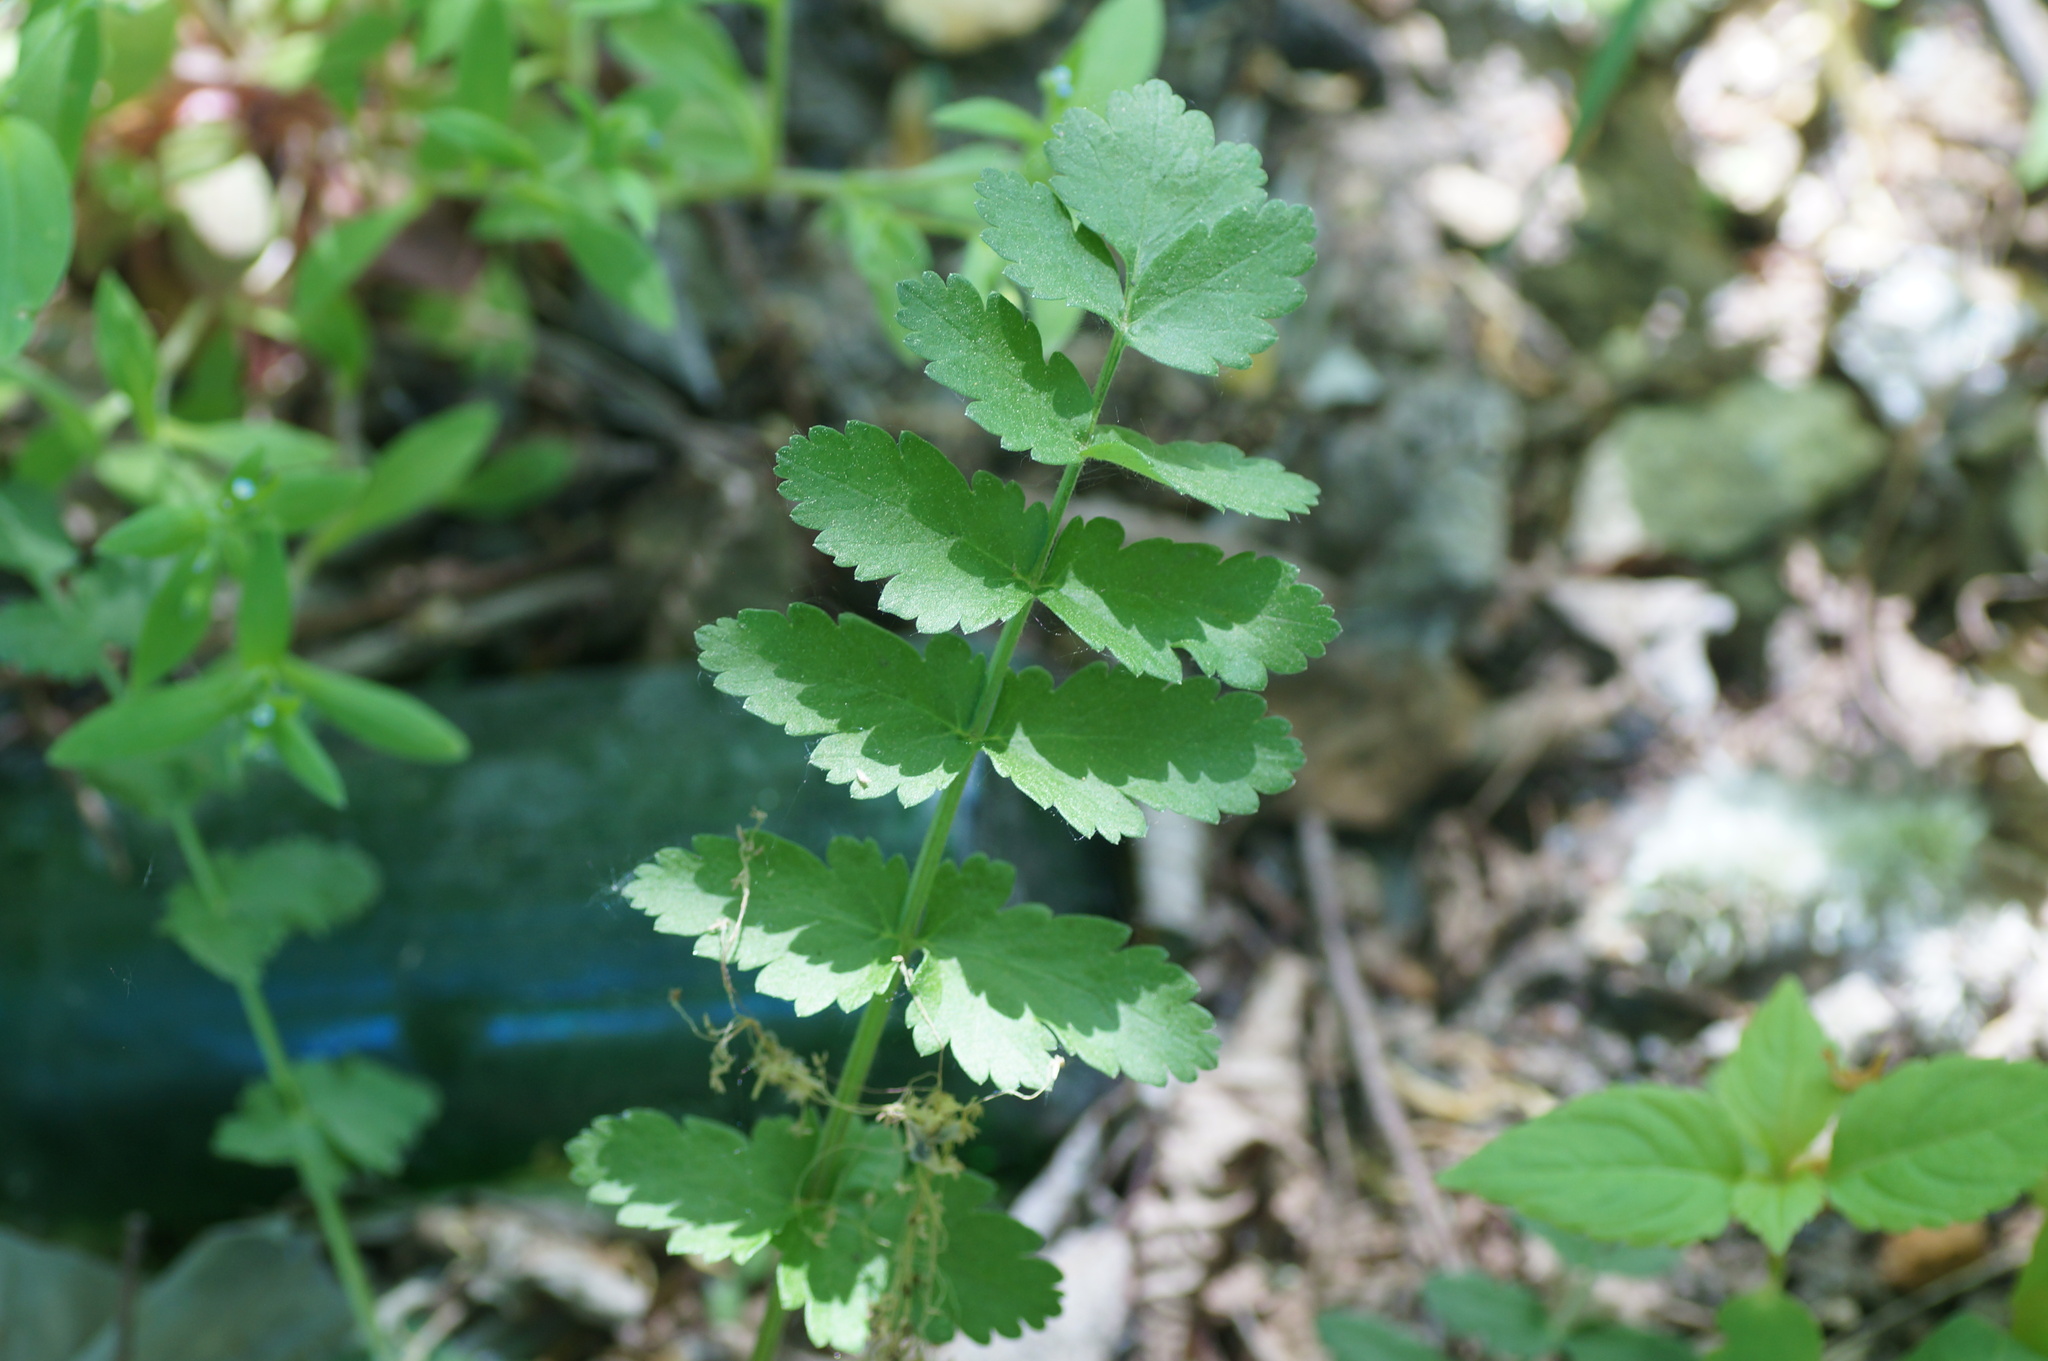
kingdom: Plantae
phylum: Tracheophyta
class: Magnoliopsida
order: Apiales
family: Apiaceae
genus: Pimpinella
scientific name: Pimpinella saxifraga
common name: Burnet-saxifrage
